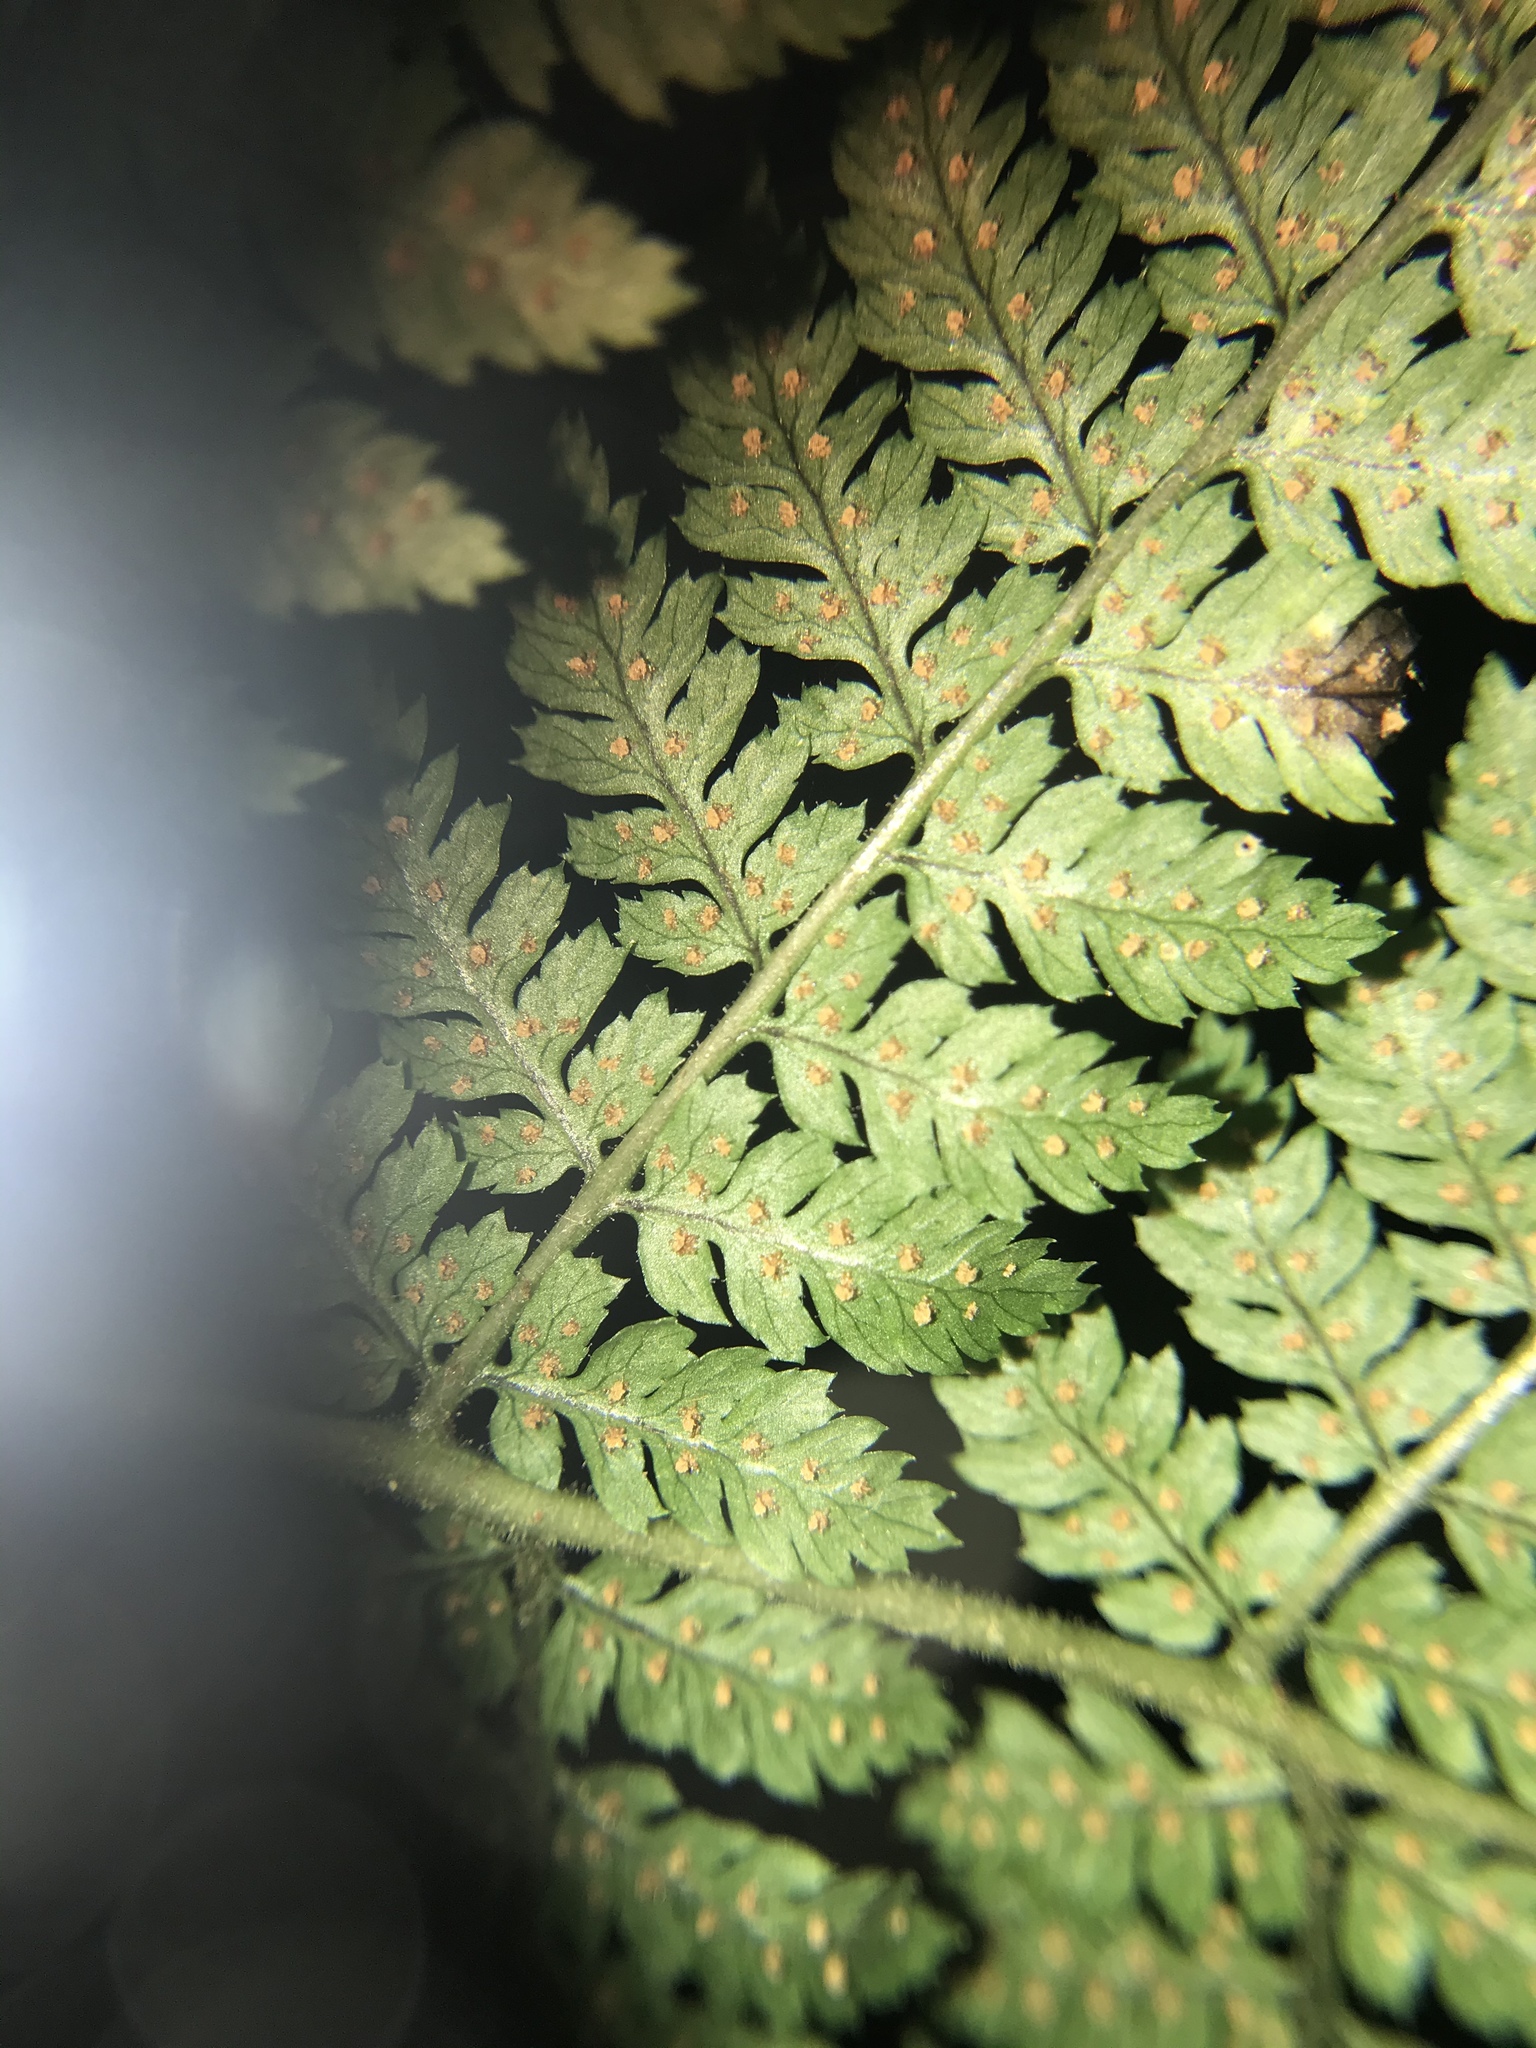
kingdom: Plantae
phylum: Tracheophyta
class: Polypodiopsida
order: Polypodiales
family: Dryopteridaceae
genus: Dryopteris
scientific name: Dryopteris intermedia
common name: Evergreen wood fern
